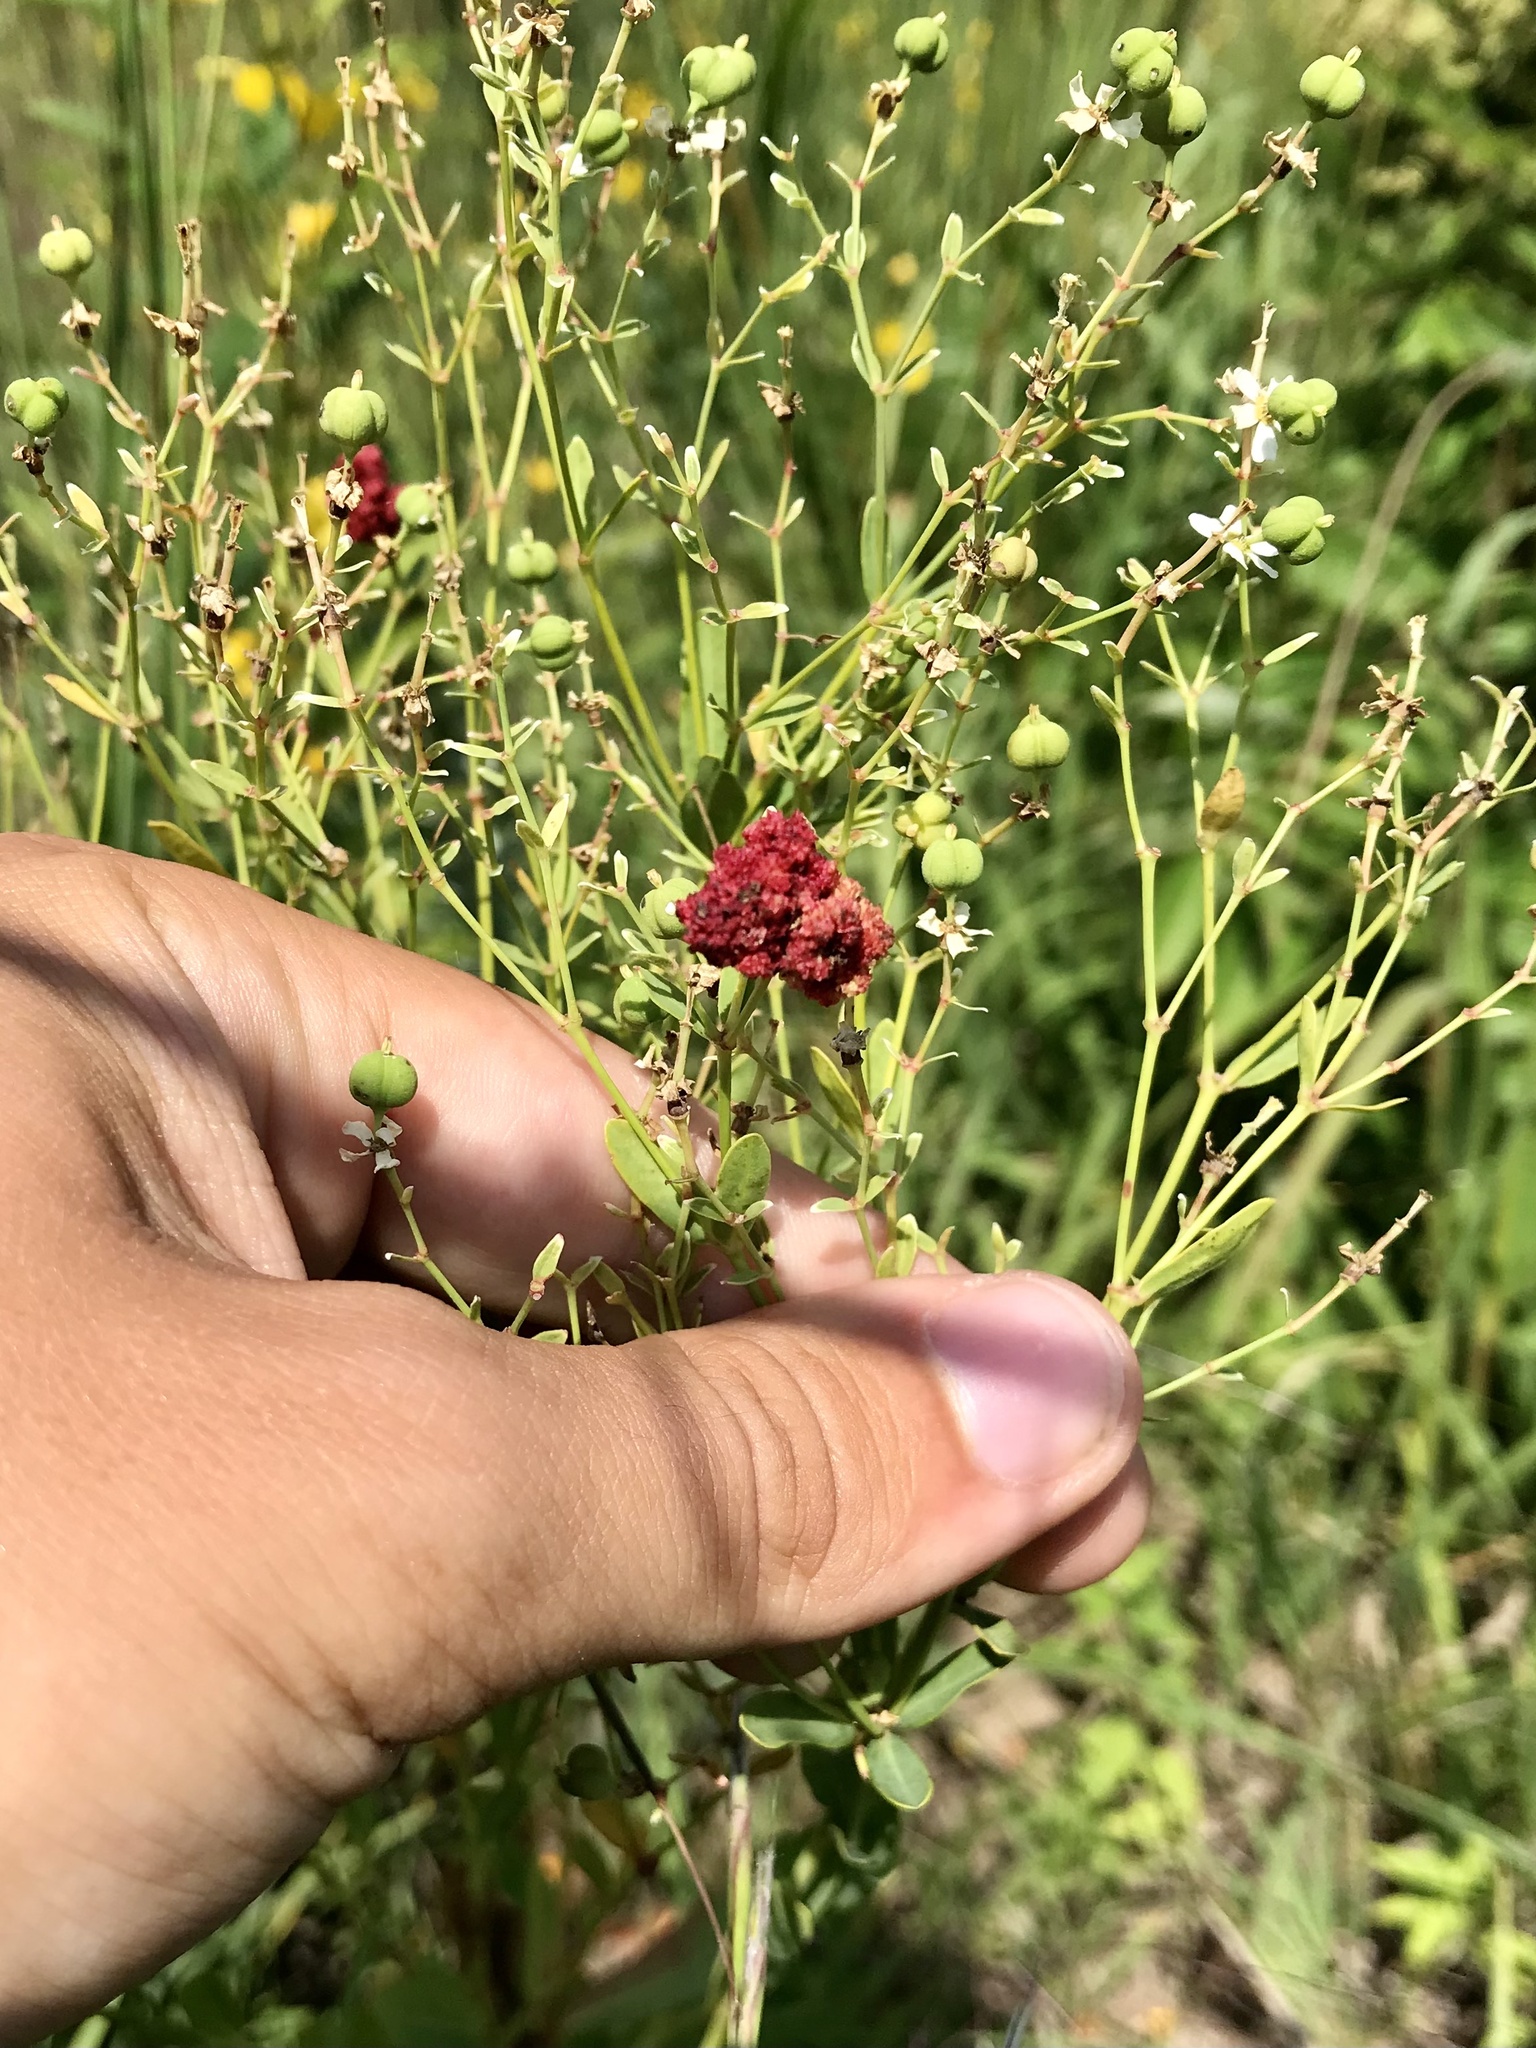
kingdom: Animalia
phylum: Arthropoda
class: Arachnida
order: Trombidiformes
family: Eriophyidae
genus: Aculops
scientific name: Aculops
